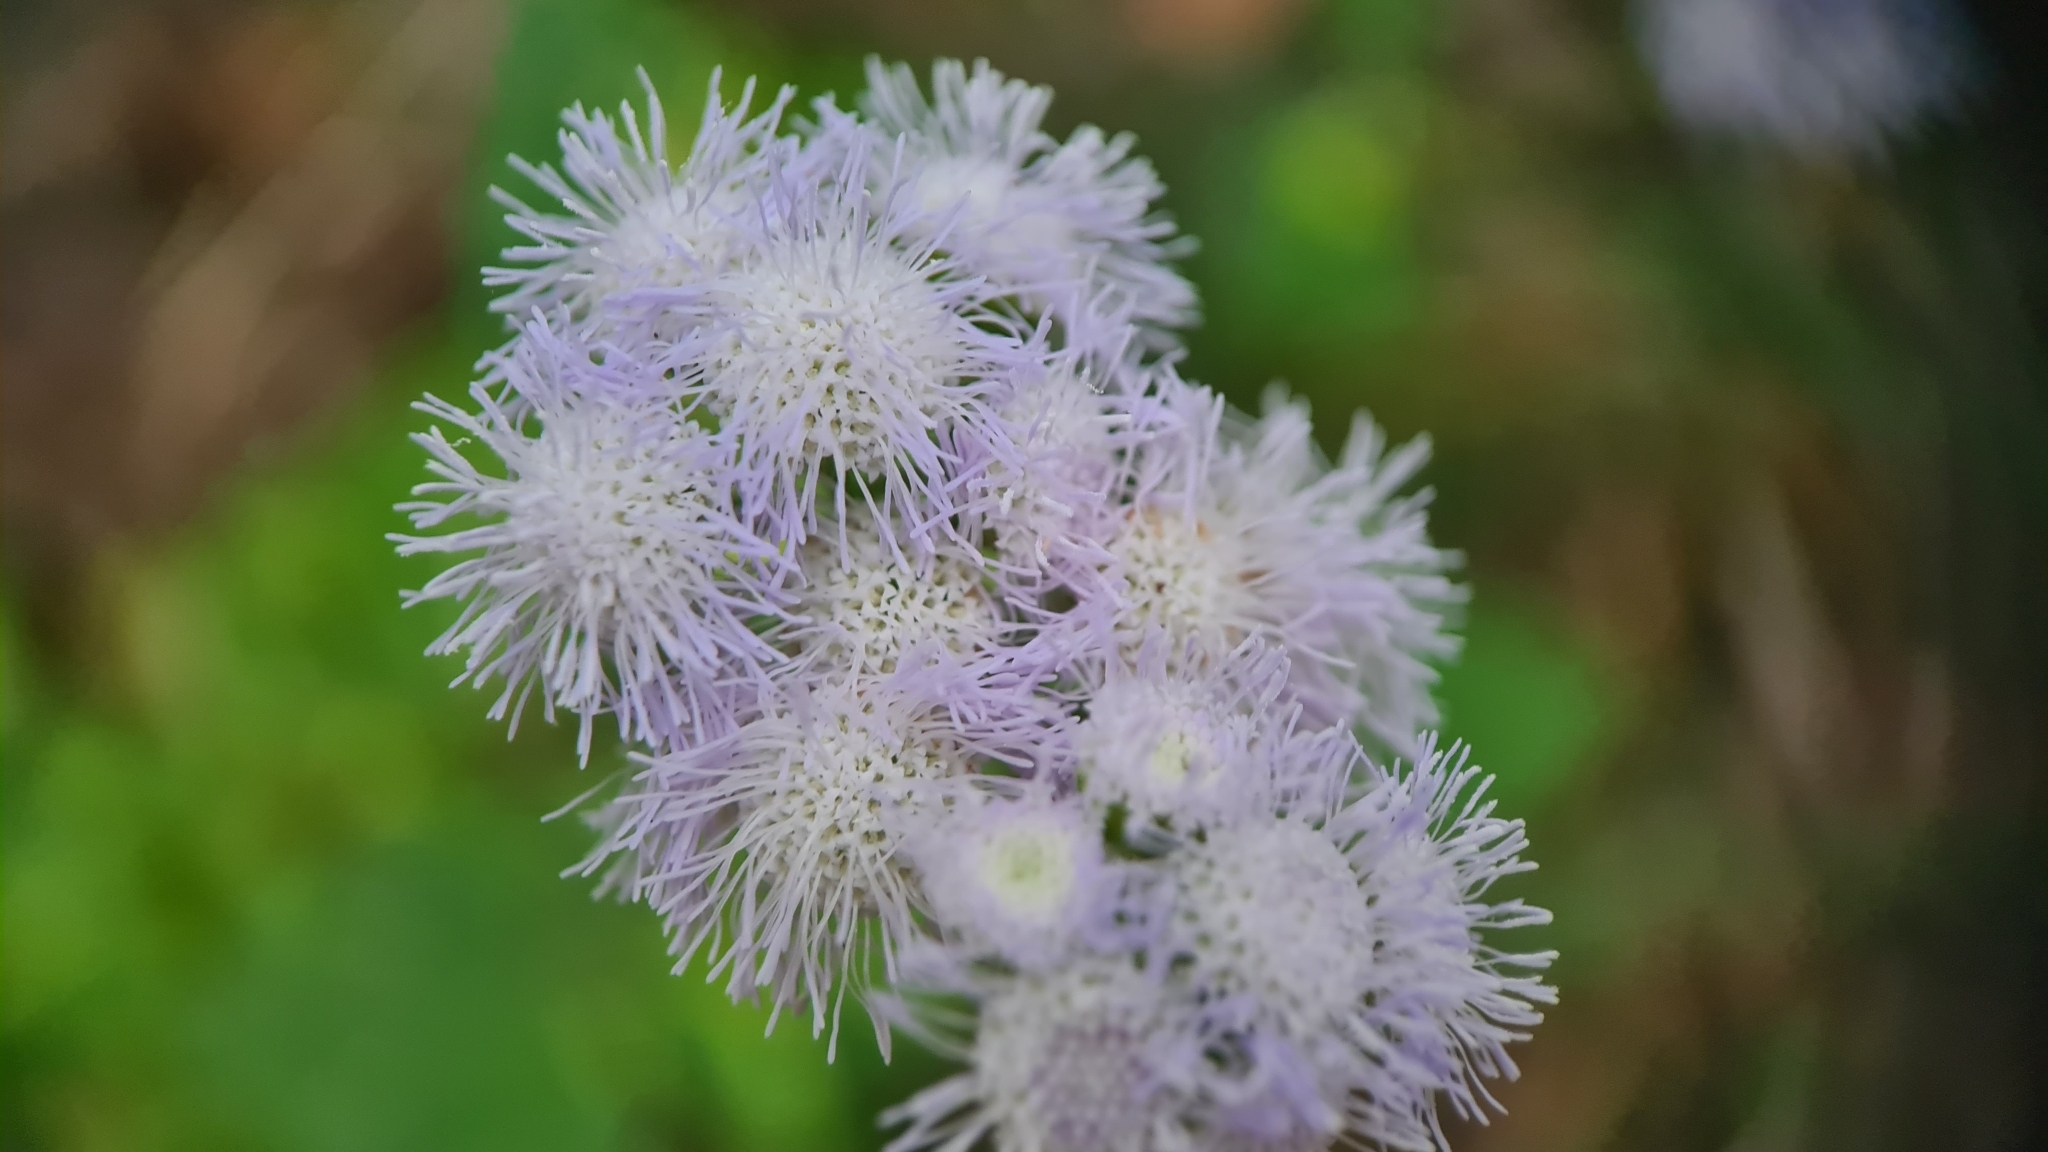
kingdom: Plantae
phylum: Tracheophyta
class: Magnoliopsida
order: Asterales
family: Asteraceae
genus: Ageratum
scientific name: Ageratum houstonianum
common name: Bluemink
